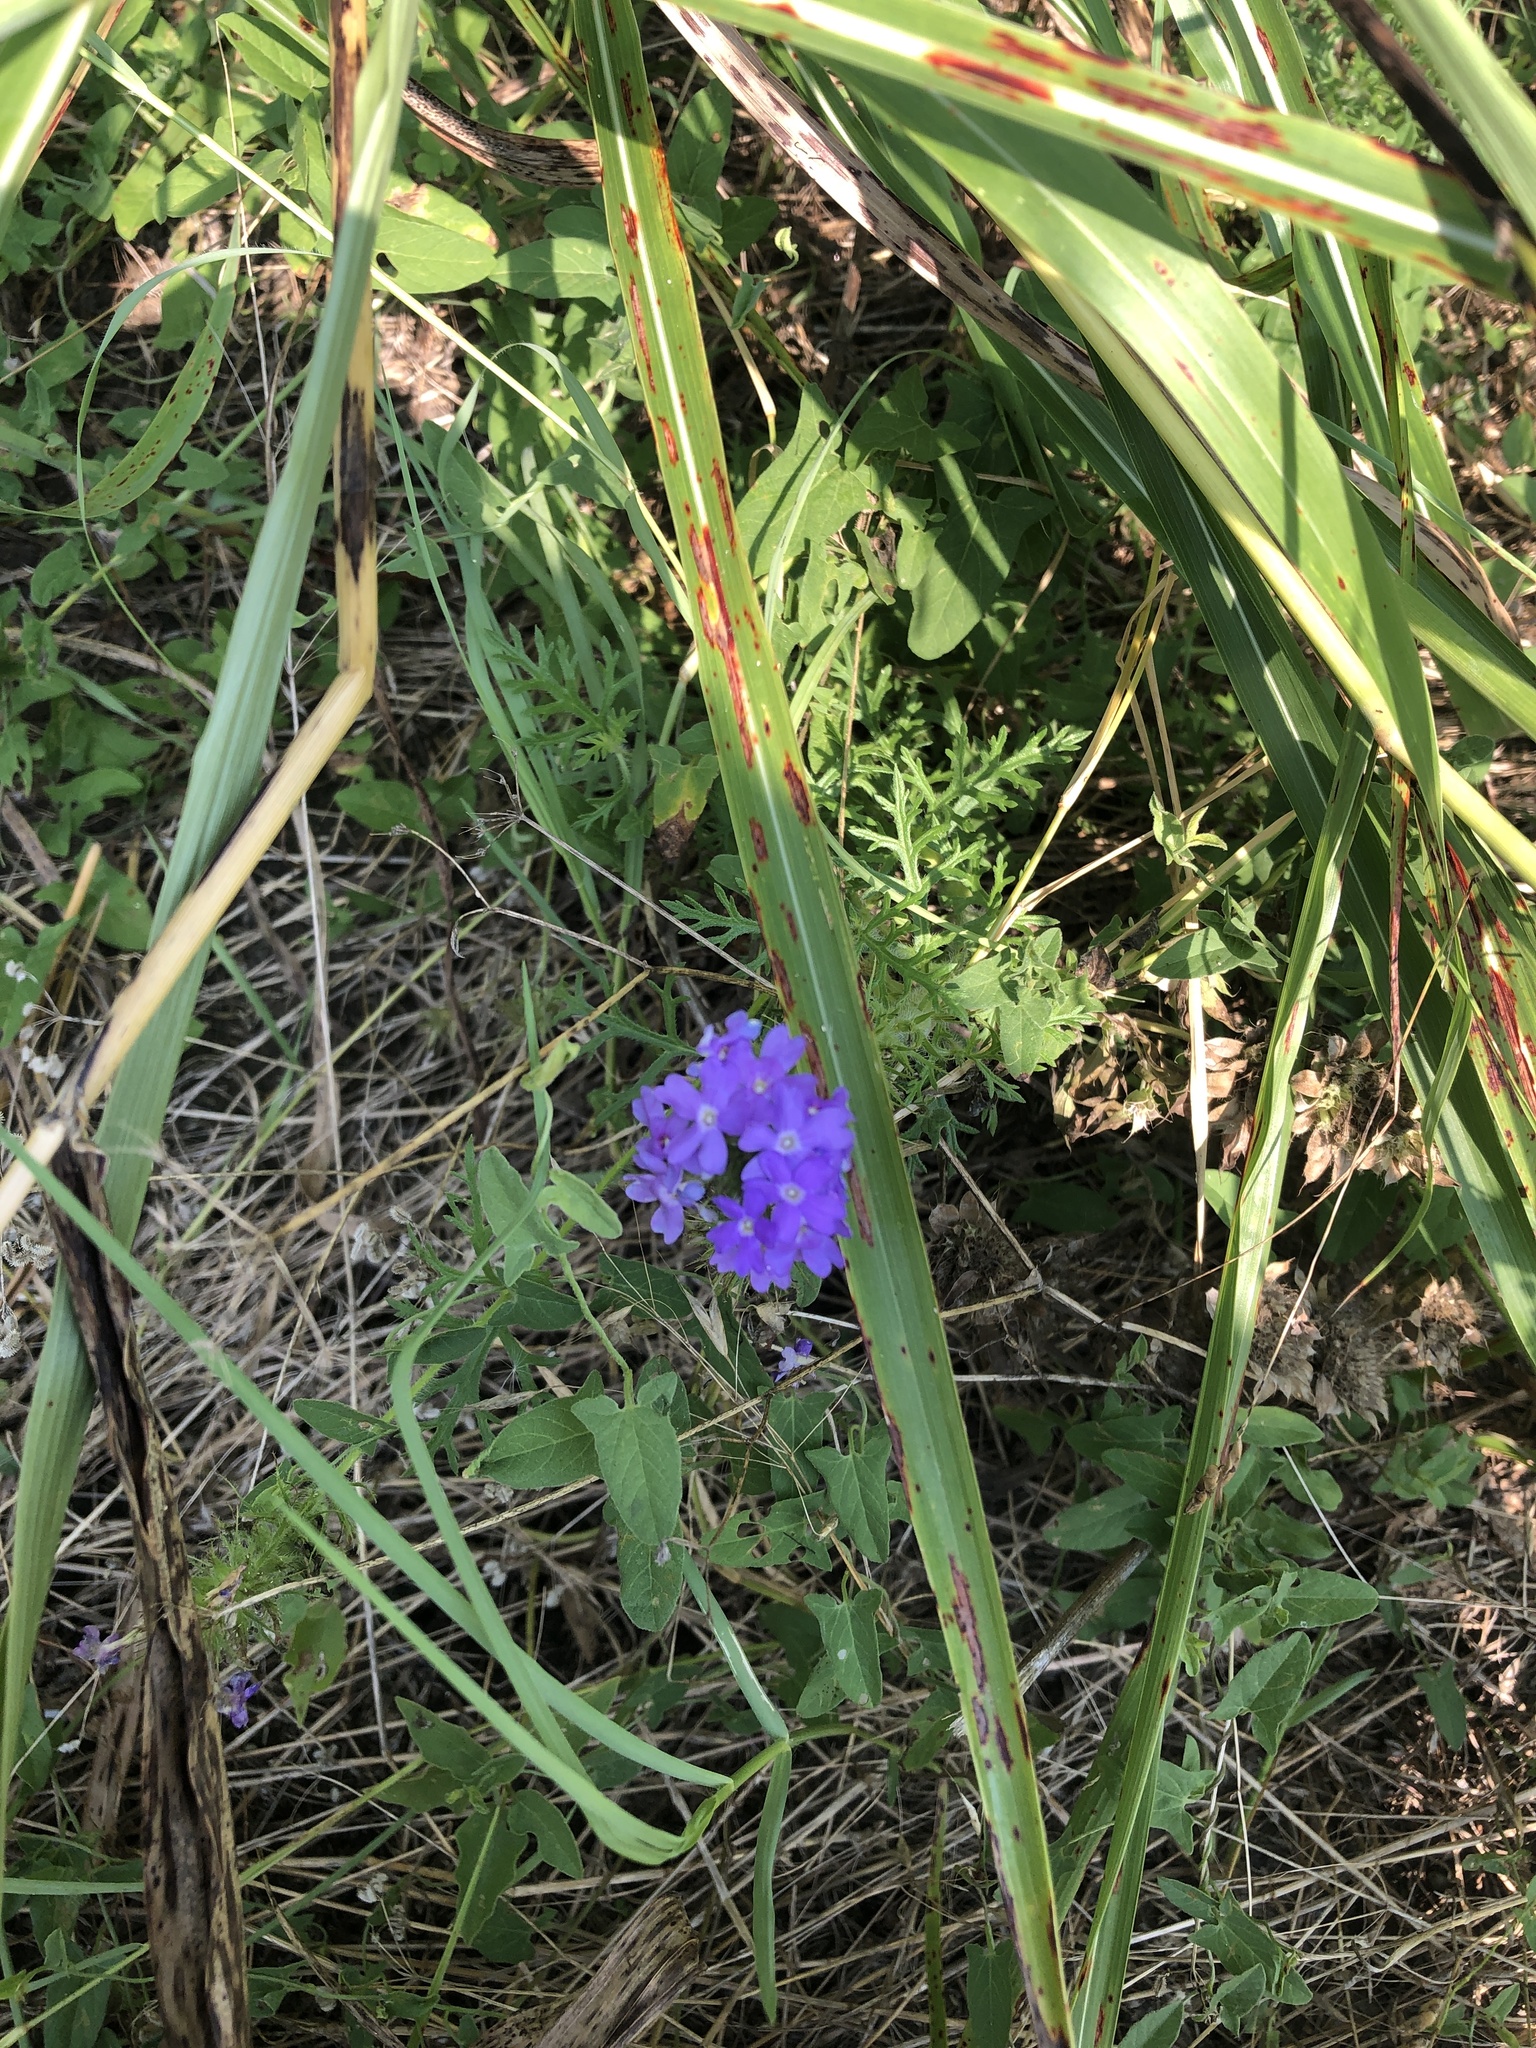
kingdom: Plantae
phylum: Tracheophyta
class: Magnoliopsida
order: Lamiales
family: Verbenaceae
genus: Verbena
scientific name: Verbena bipinnatifida
